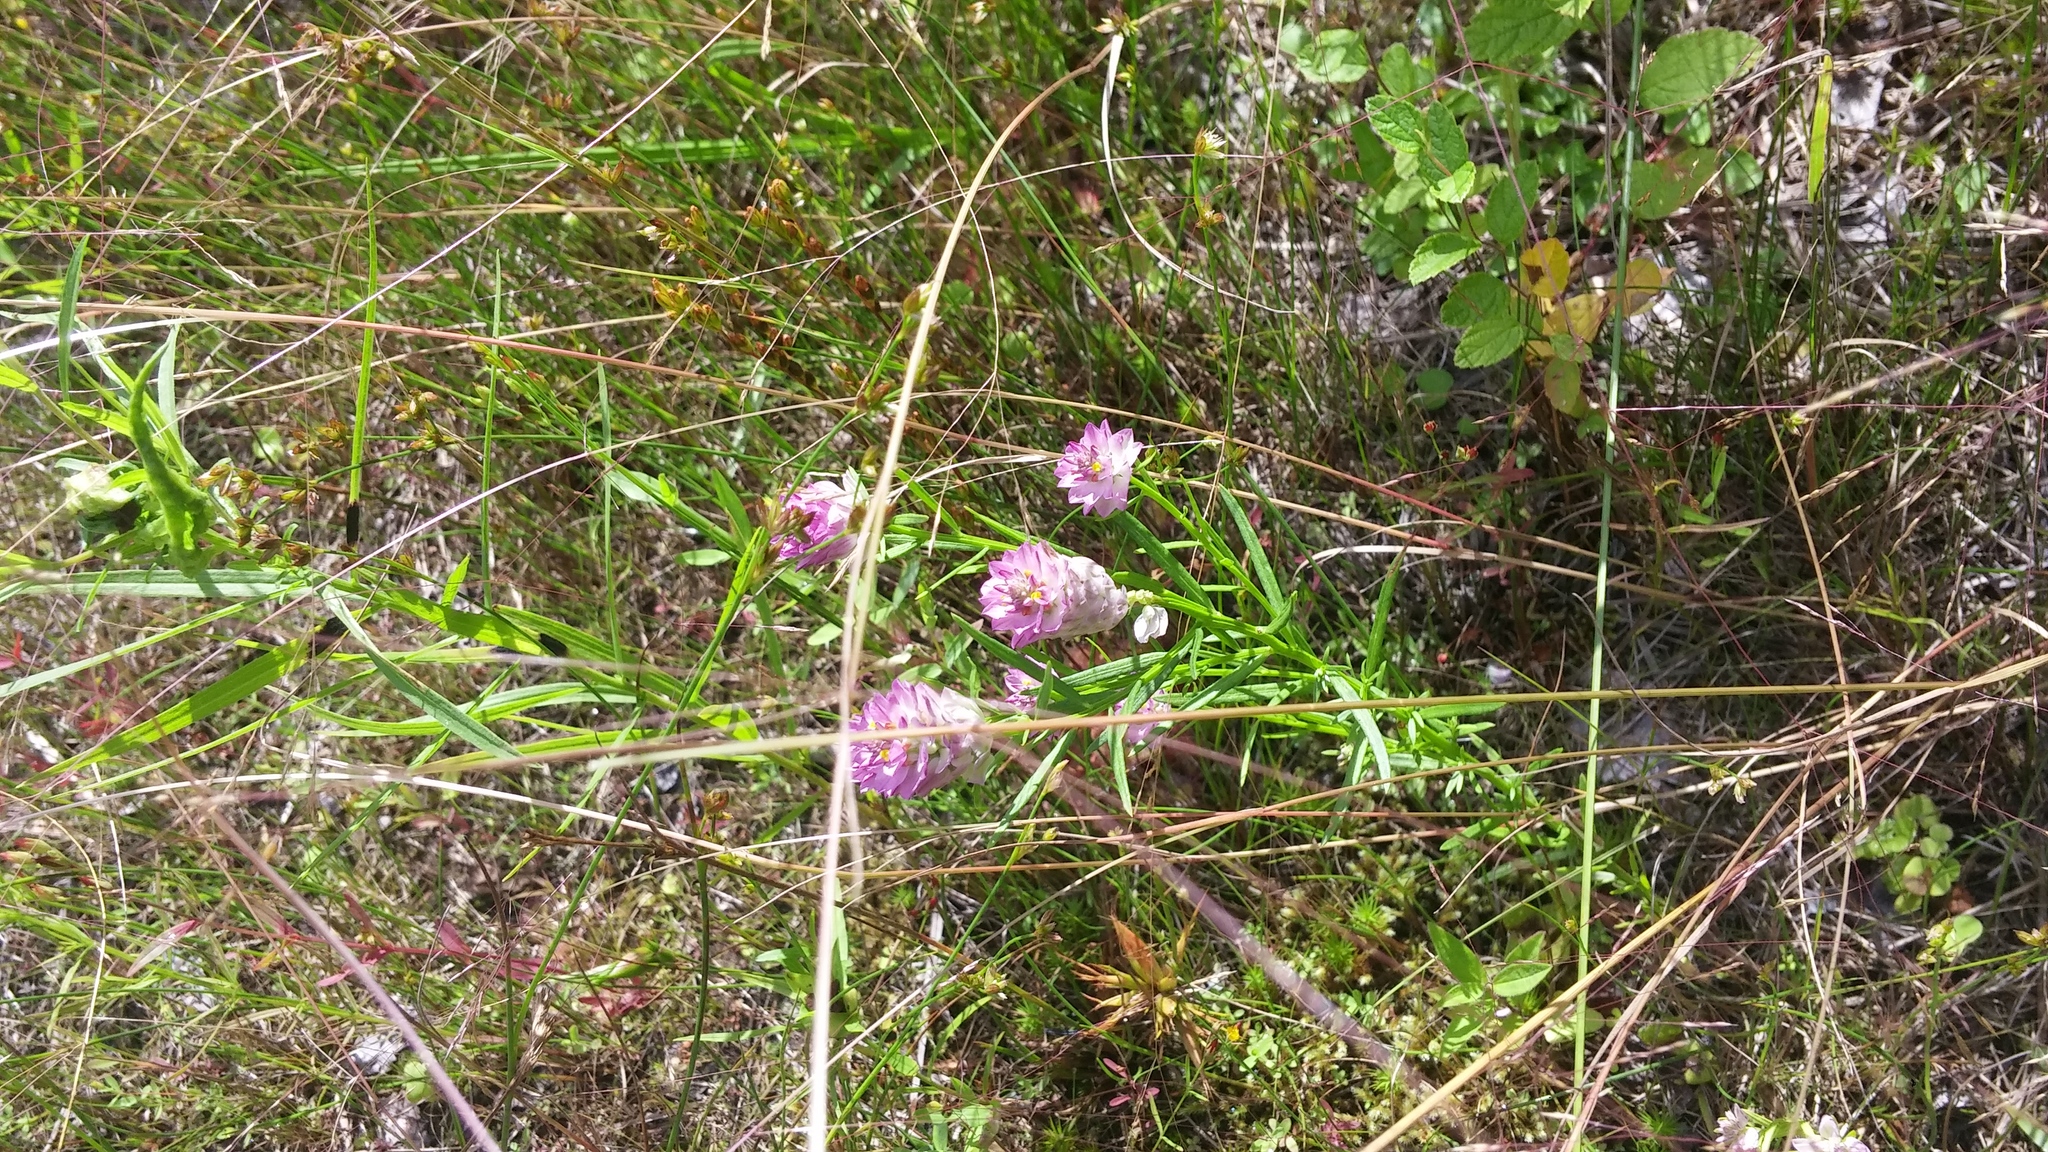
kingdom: Plantae
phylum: Tracheophyta
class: Magnoliopsida
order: Fabales
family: Polygalaceae
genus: Polygala
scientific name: Polygala sanguinea
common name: Blood milkwort
